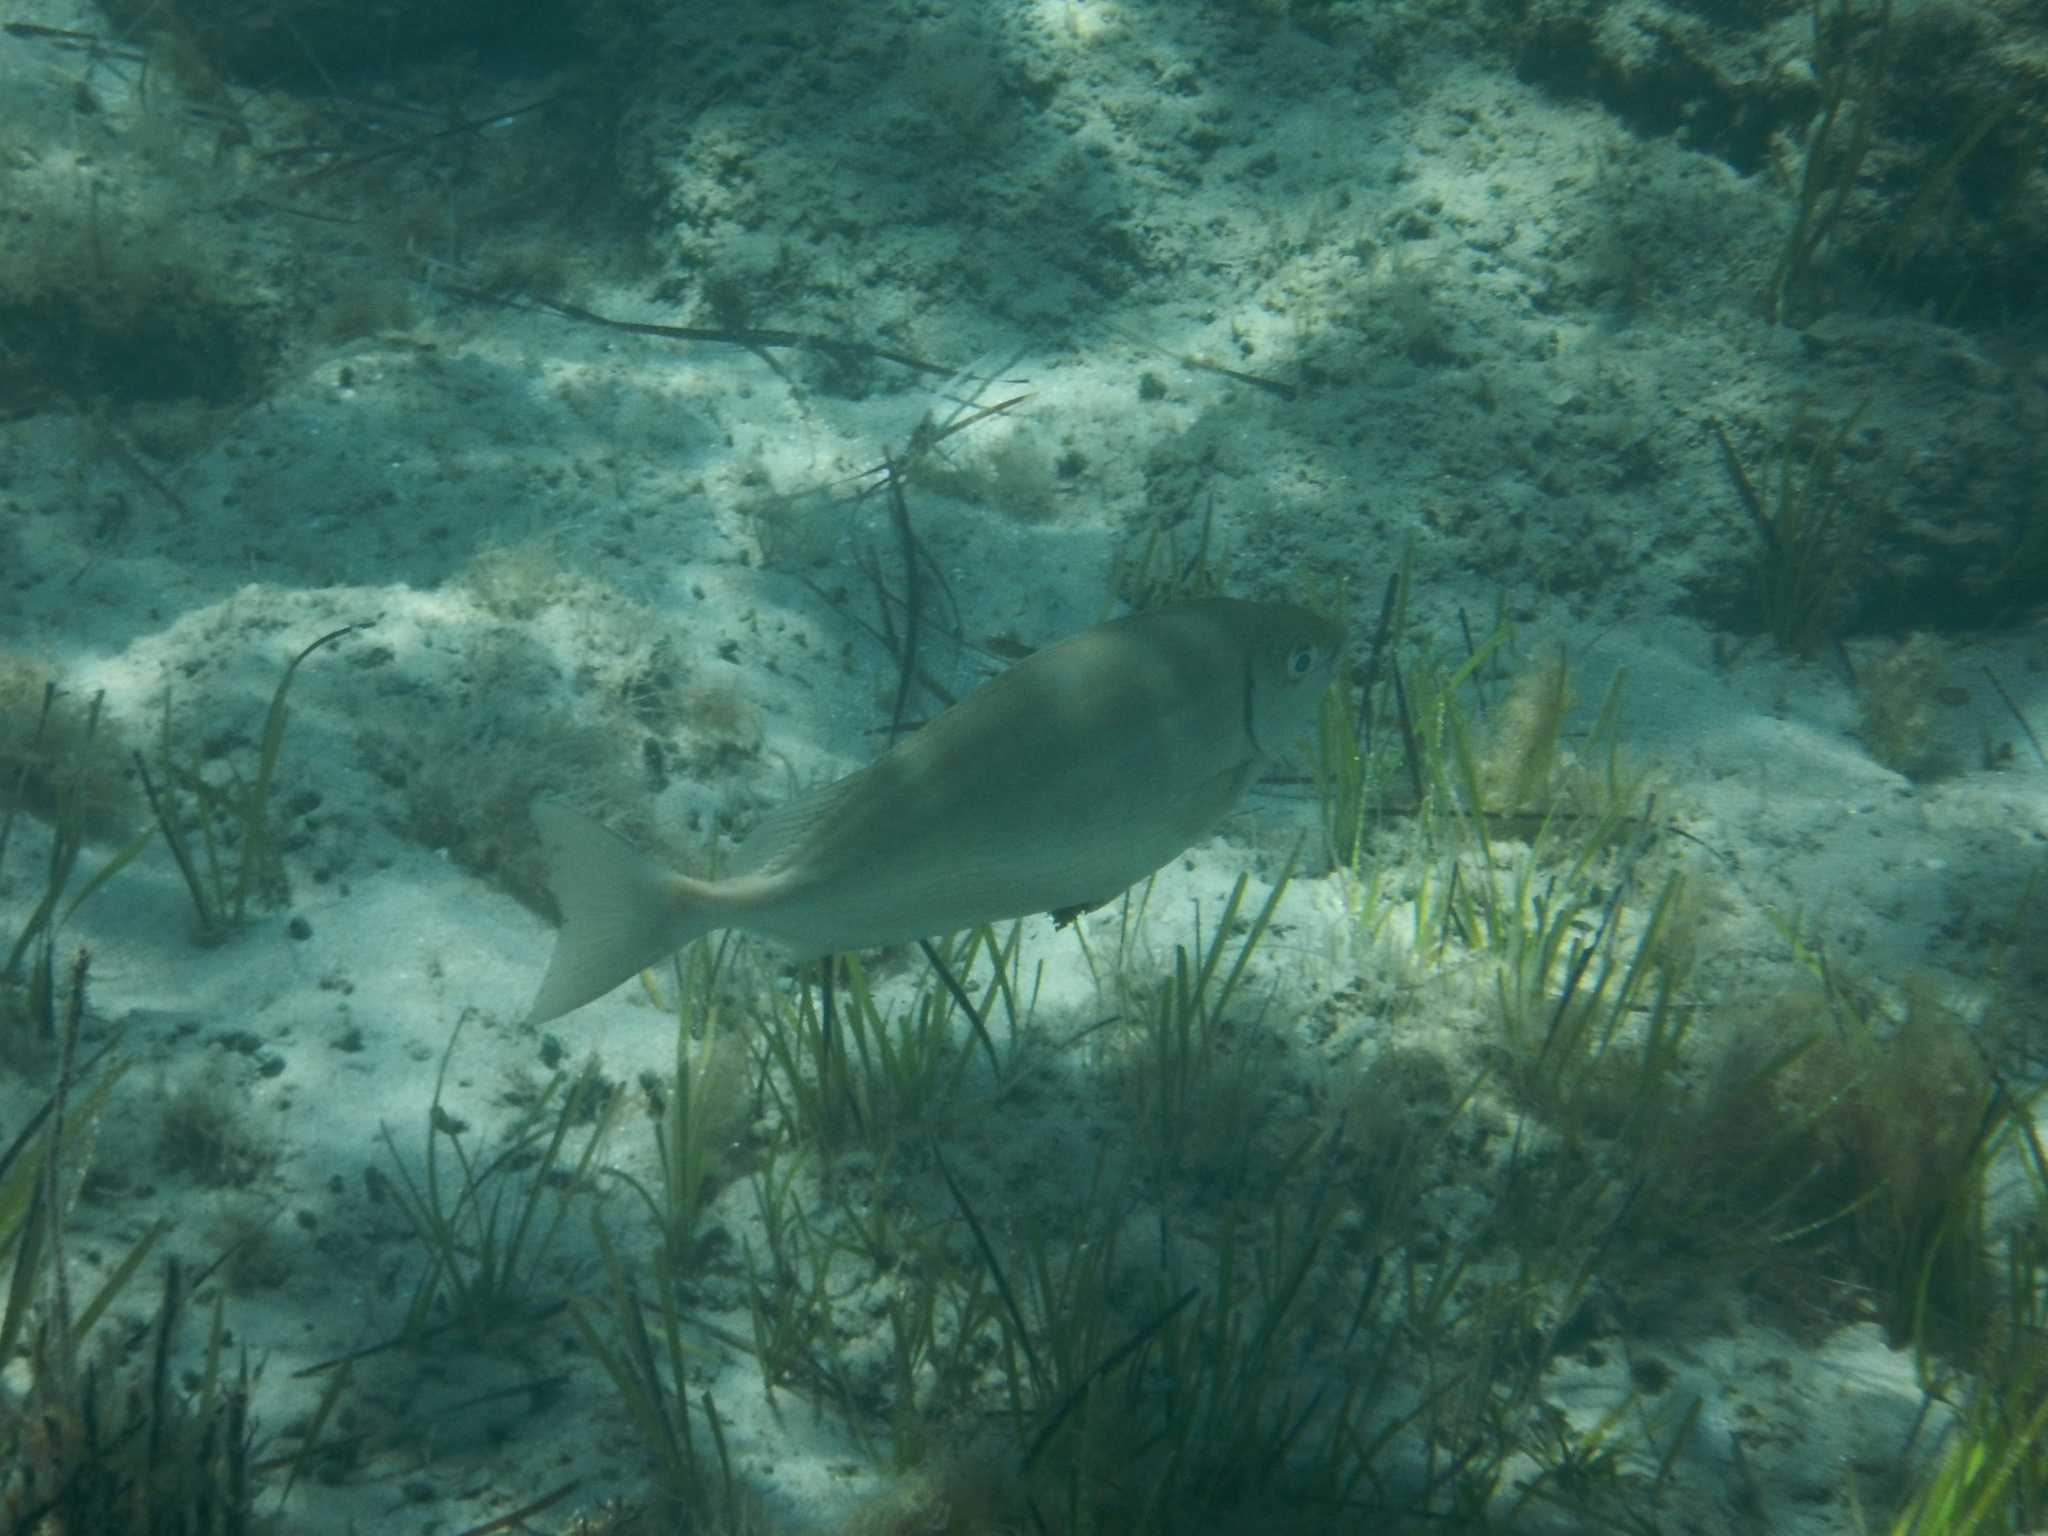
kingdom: Animalia
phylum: Chordata
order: Perciformes
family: Siganidae
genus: Siganus
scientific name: Siganus rivulatus
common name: Marbled spinefoot
